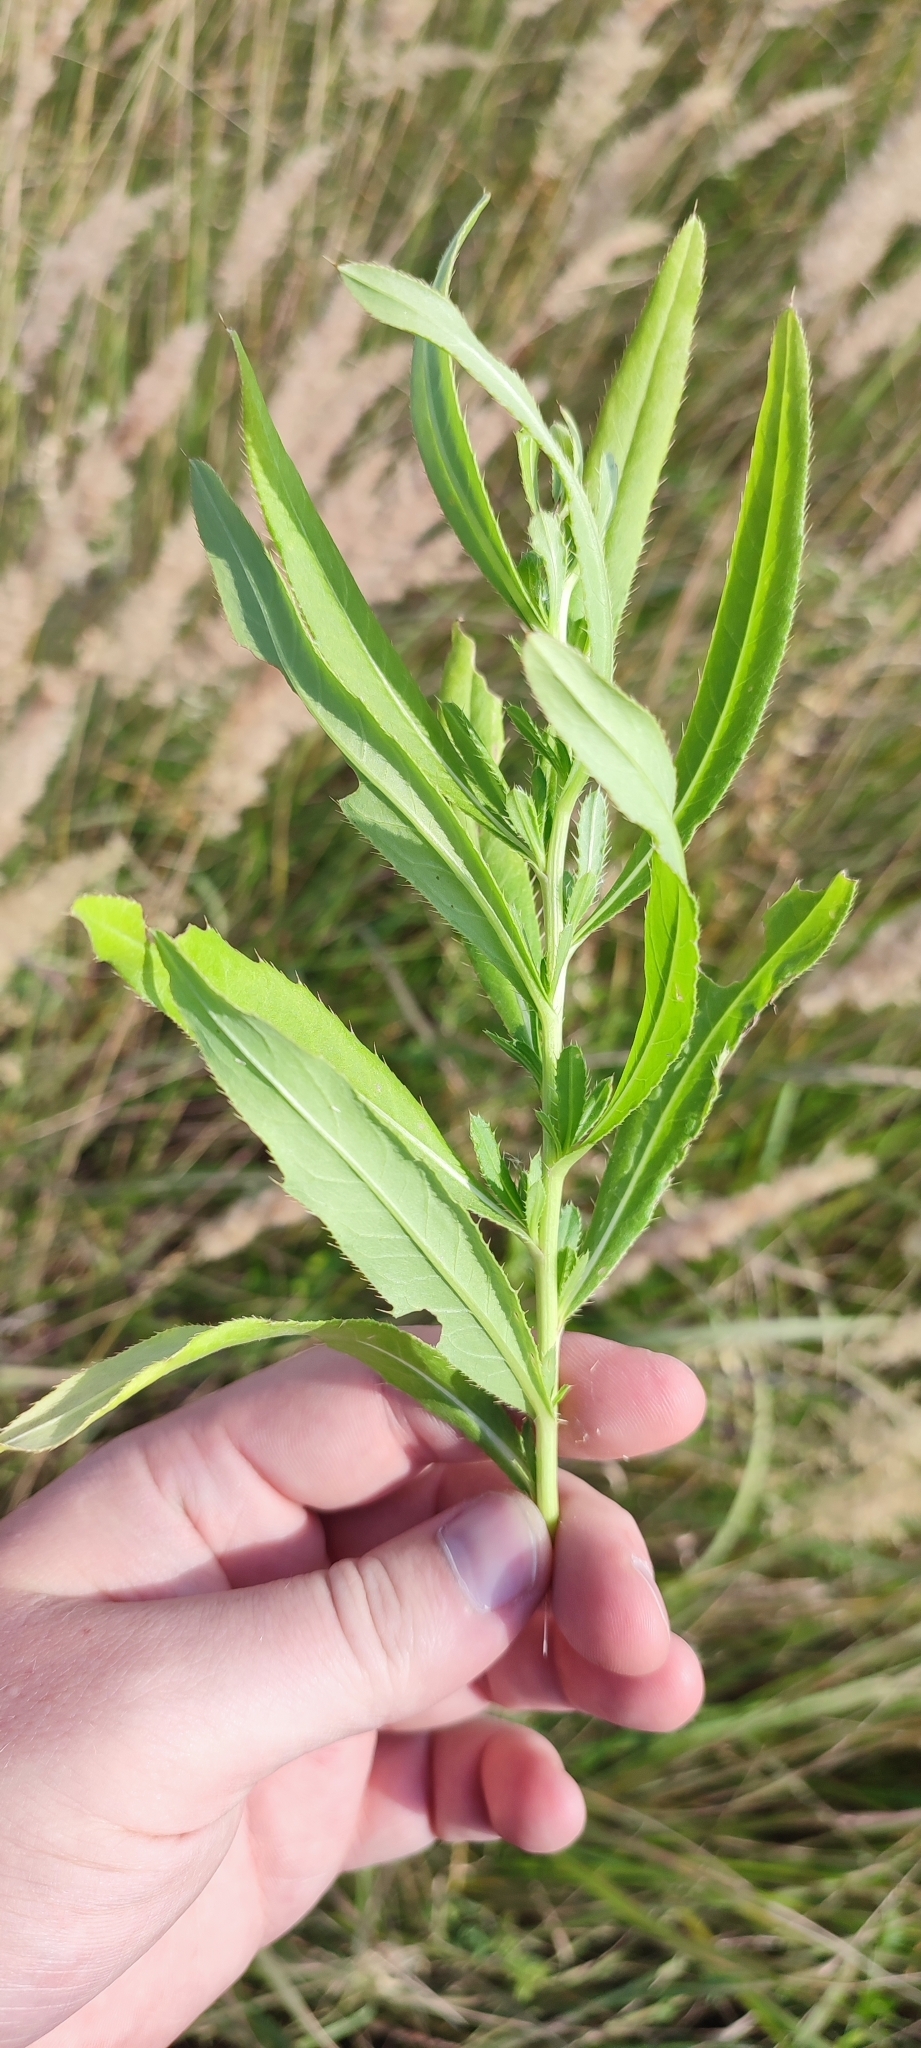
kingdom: Plantae
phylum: Tracheophyta
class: Magnoliopsida
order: Asterales
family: Asteraceae
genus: Cirsium
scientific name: Cirsium arvense
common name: Creeping thistle
